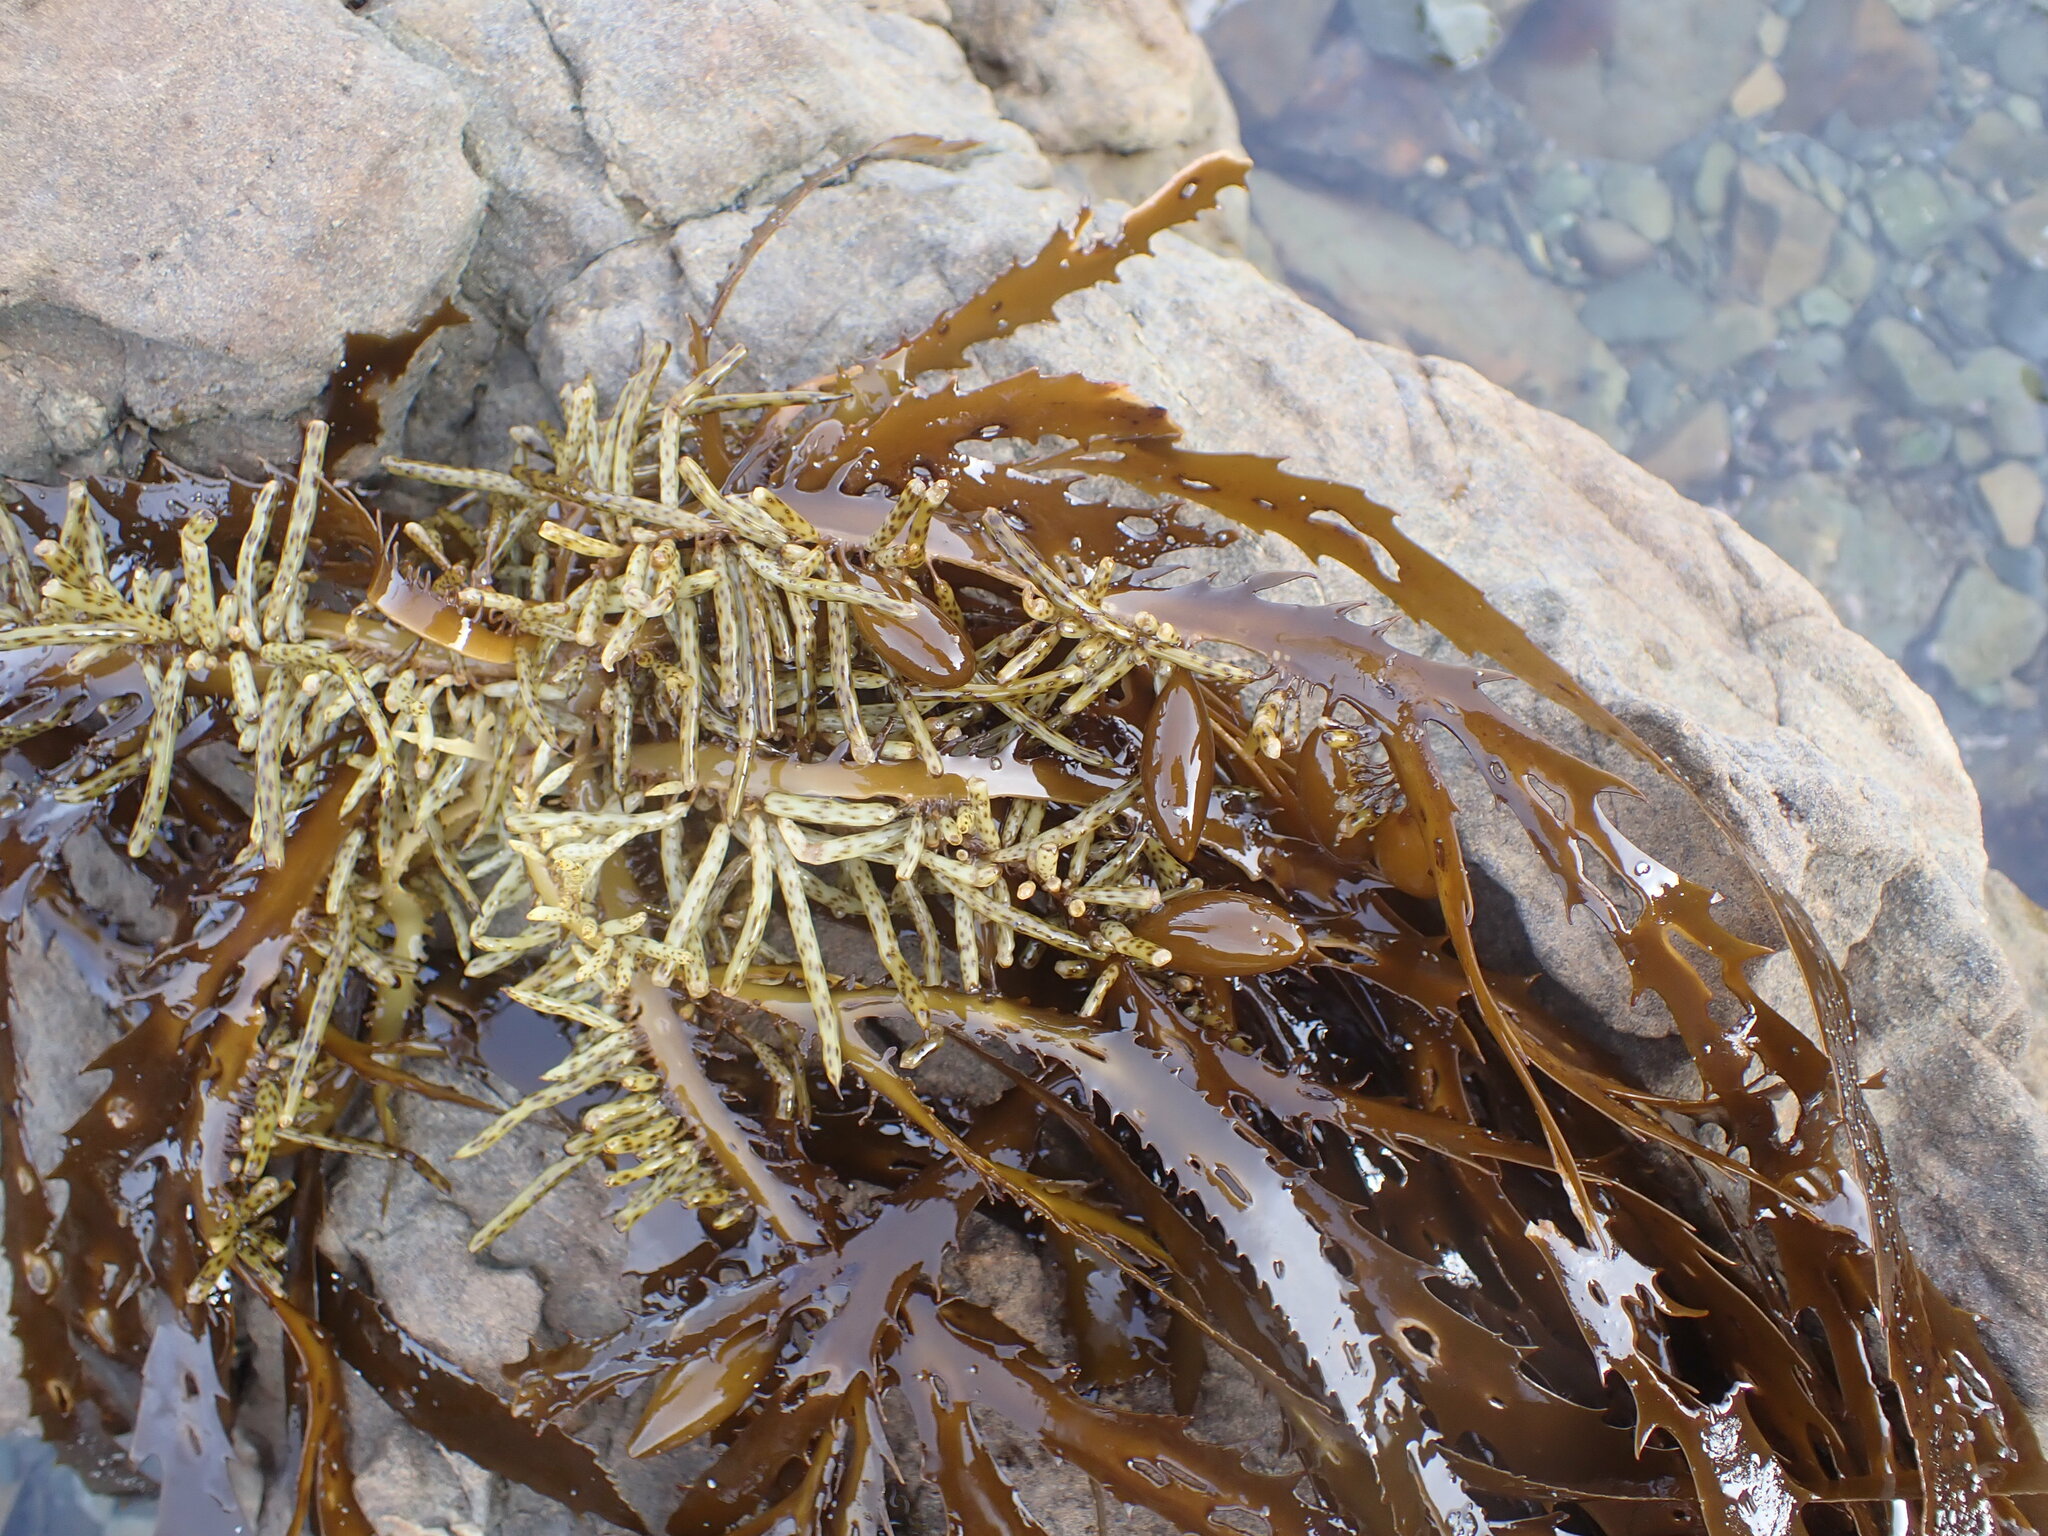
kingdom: Chromista
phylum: Ochrophyta
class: Phaeophyceae
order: Fucales
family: Seirococcaceae
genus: Marginariella
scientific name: Marginariella boryana
